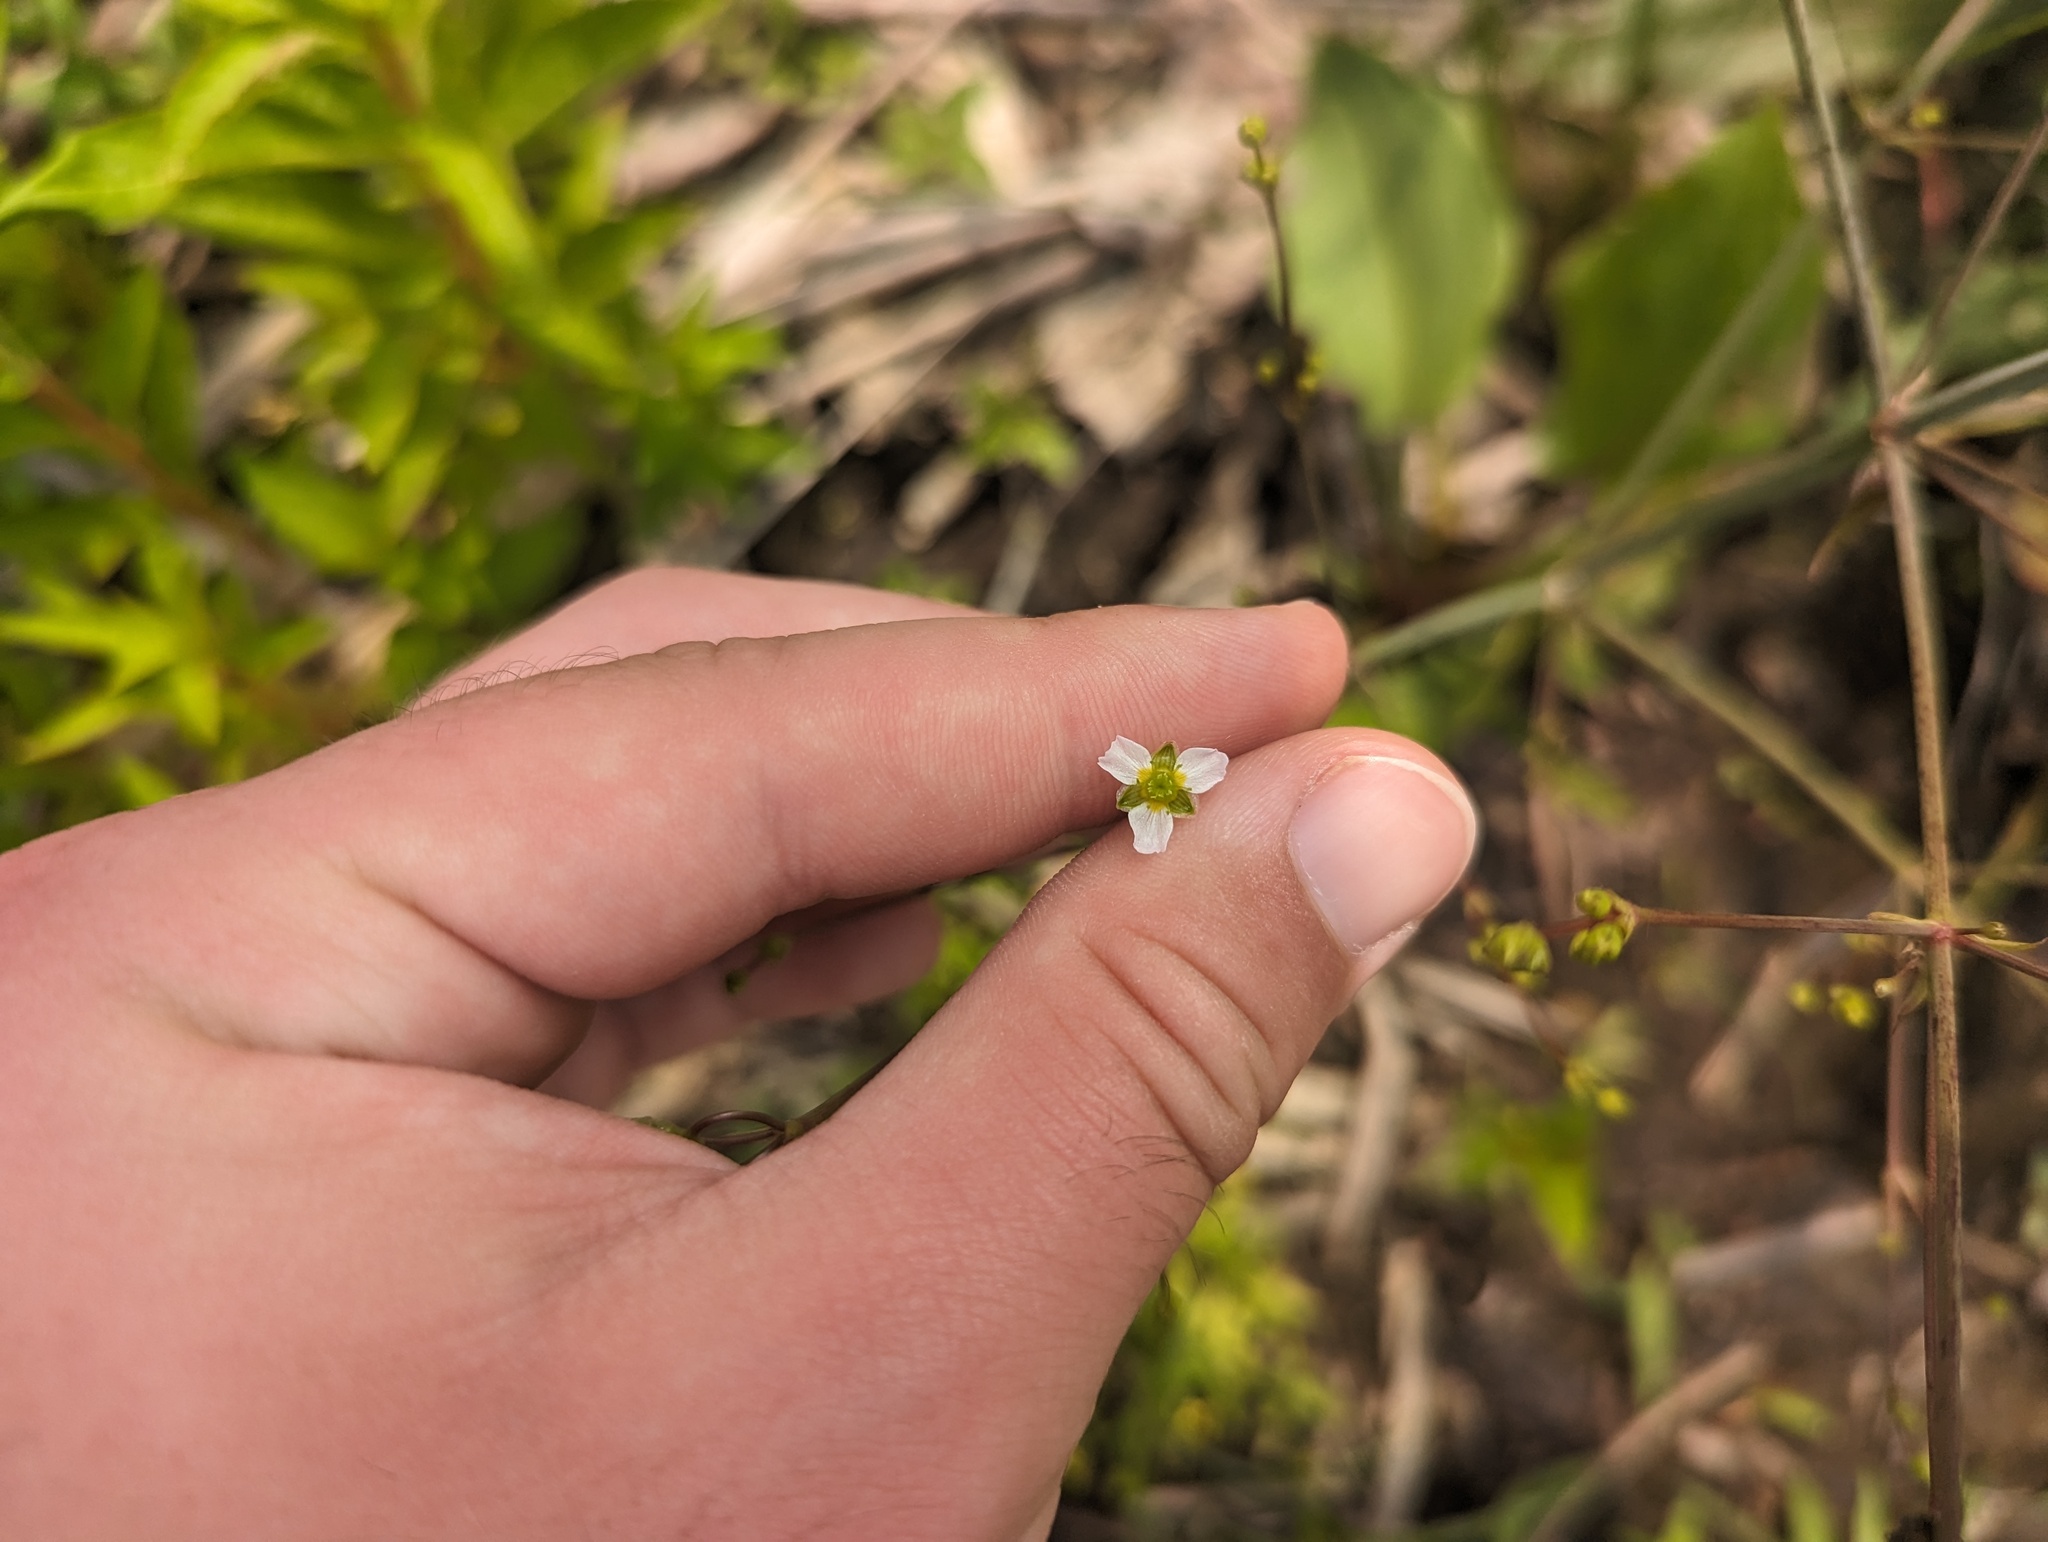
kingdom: Plantae
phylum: Tracheophyta
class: Liliopsida
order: Alismatales
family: Alismataceae
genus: Alisma
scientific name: Alisma subcordatum
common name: Southern water-plantain
